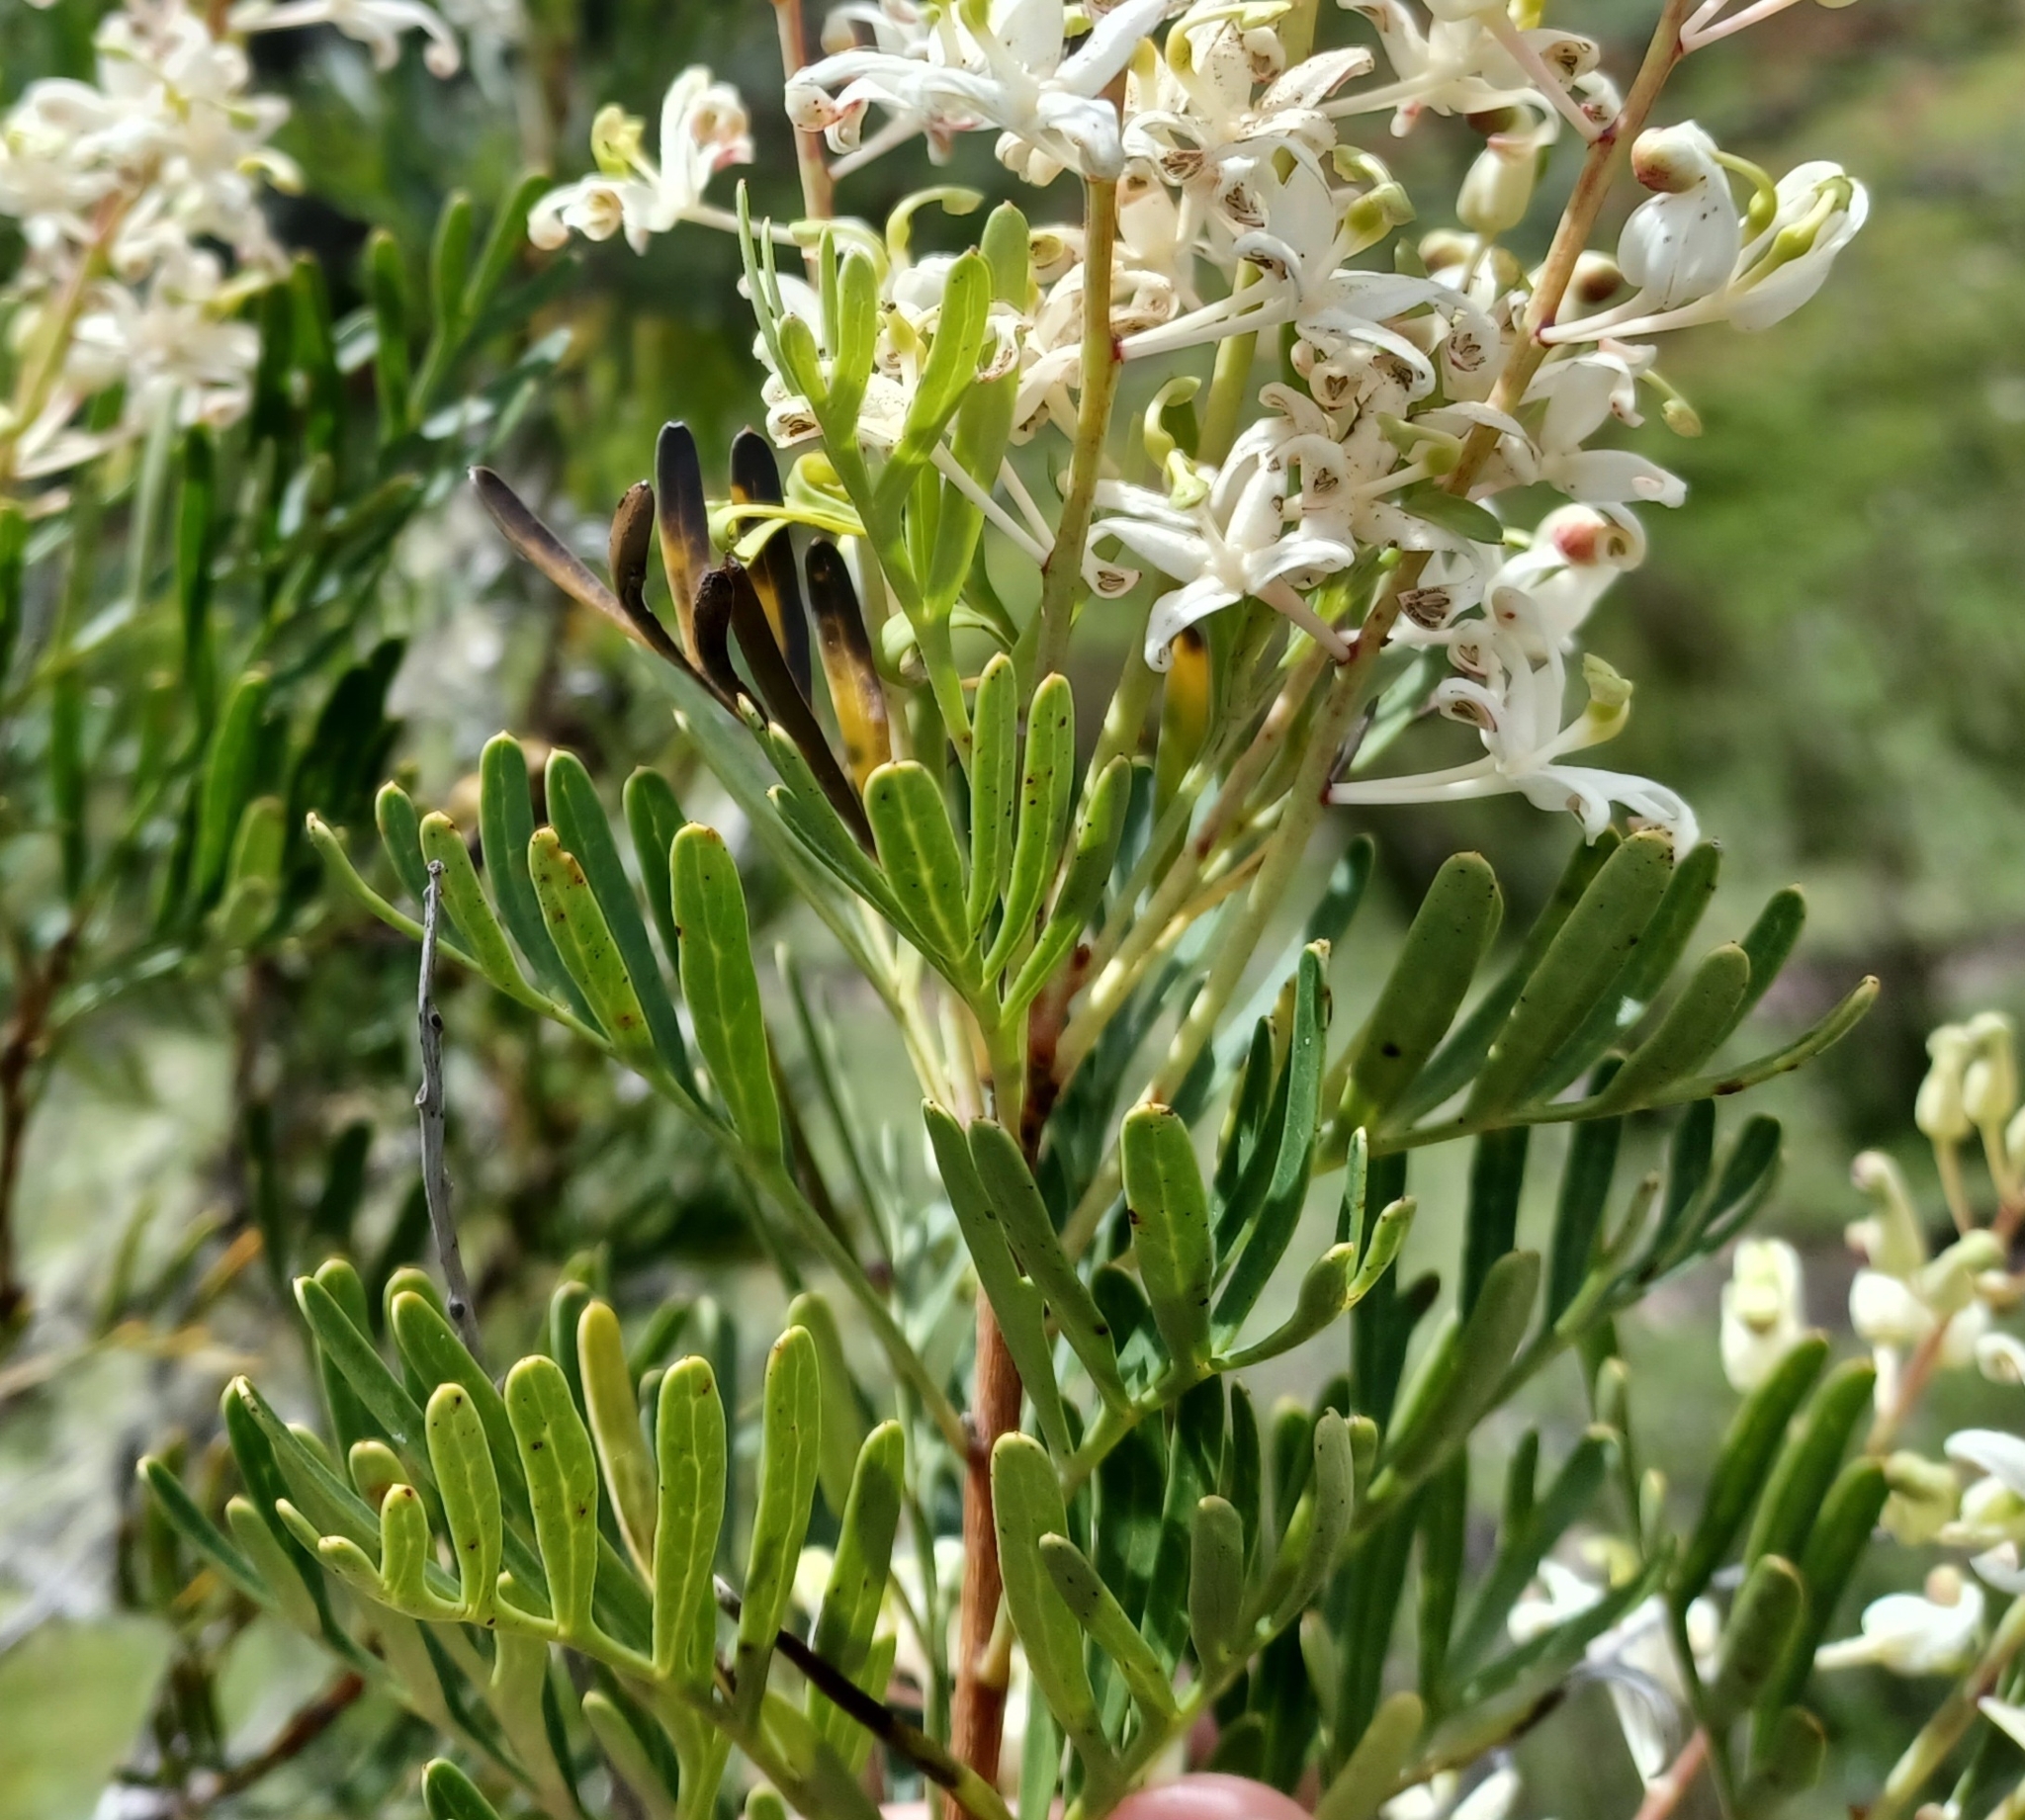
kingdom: Plantae
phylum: Tracheophyta
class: Magnoliopsida
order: Proteales
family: Proteaceae
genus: Lomatia
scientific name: Lomatia tinctoria
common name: Guitar plant
